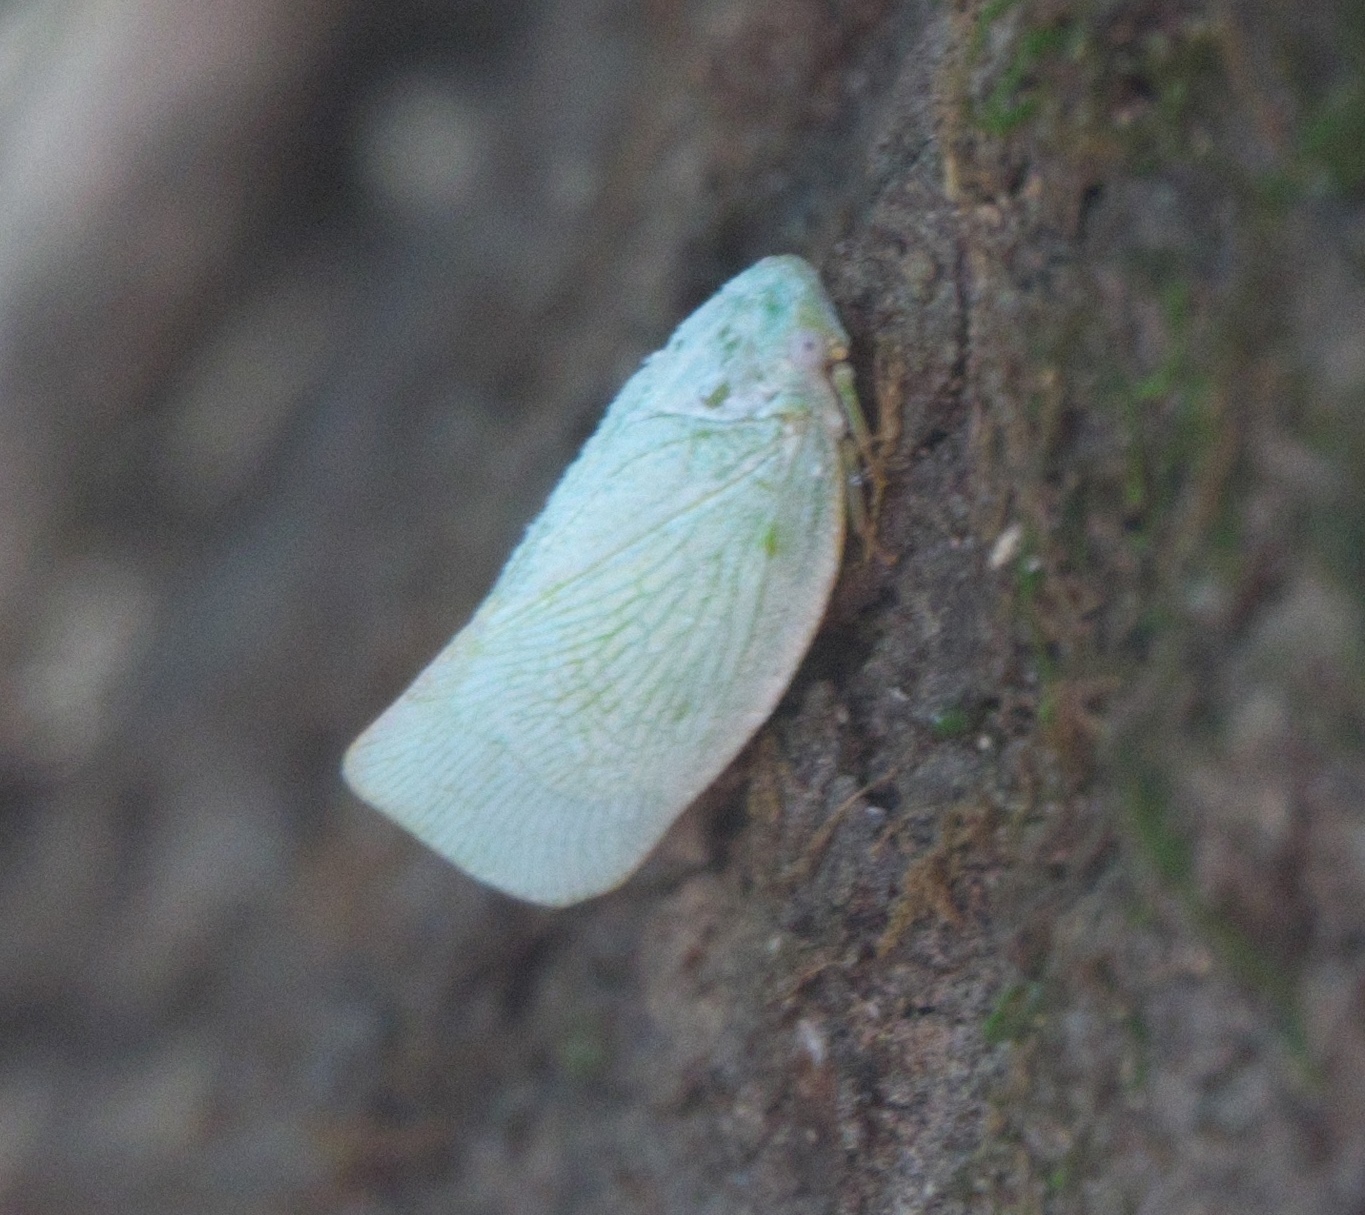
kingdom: Animalia
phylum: Arthropoda
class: Insecta
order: Hemiptera
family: Flatidae
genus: Flatormenis
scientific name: Flatormenis proxima
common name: Northern flatid planthopper
